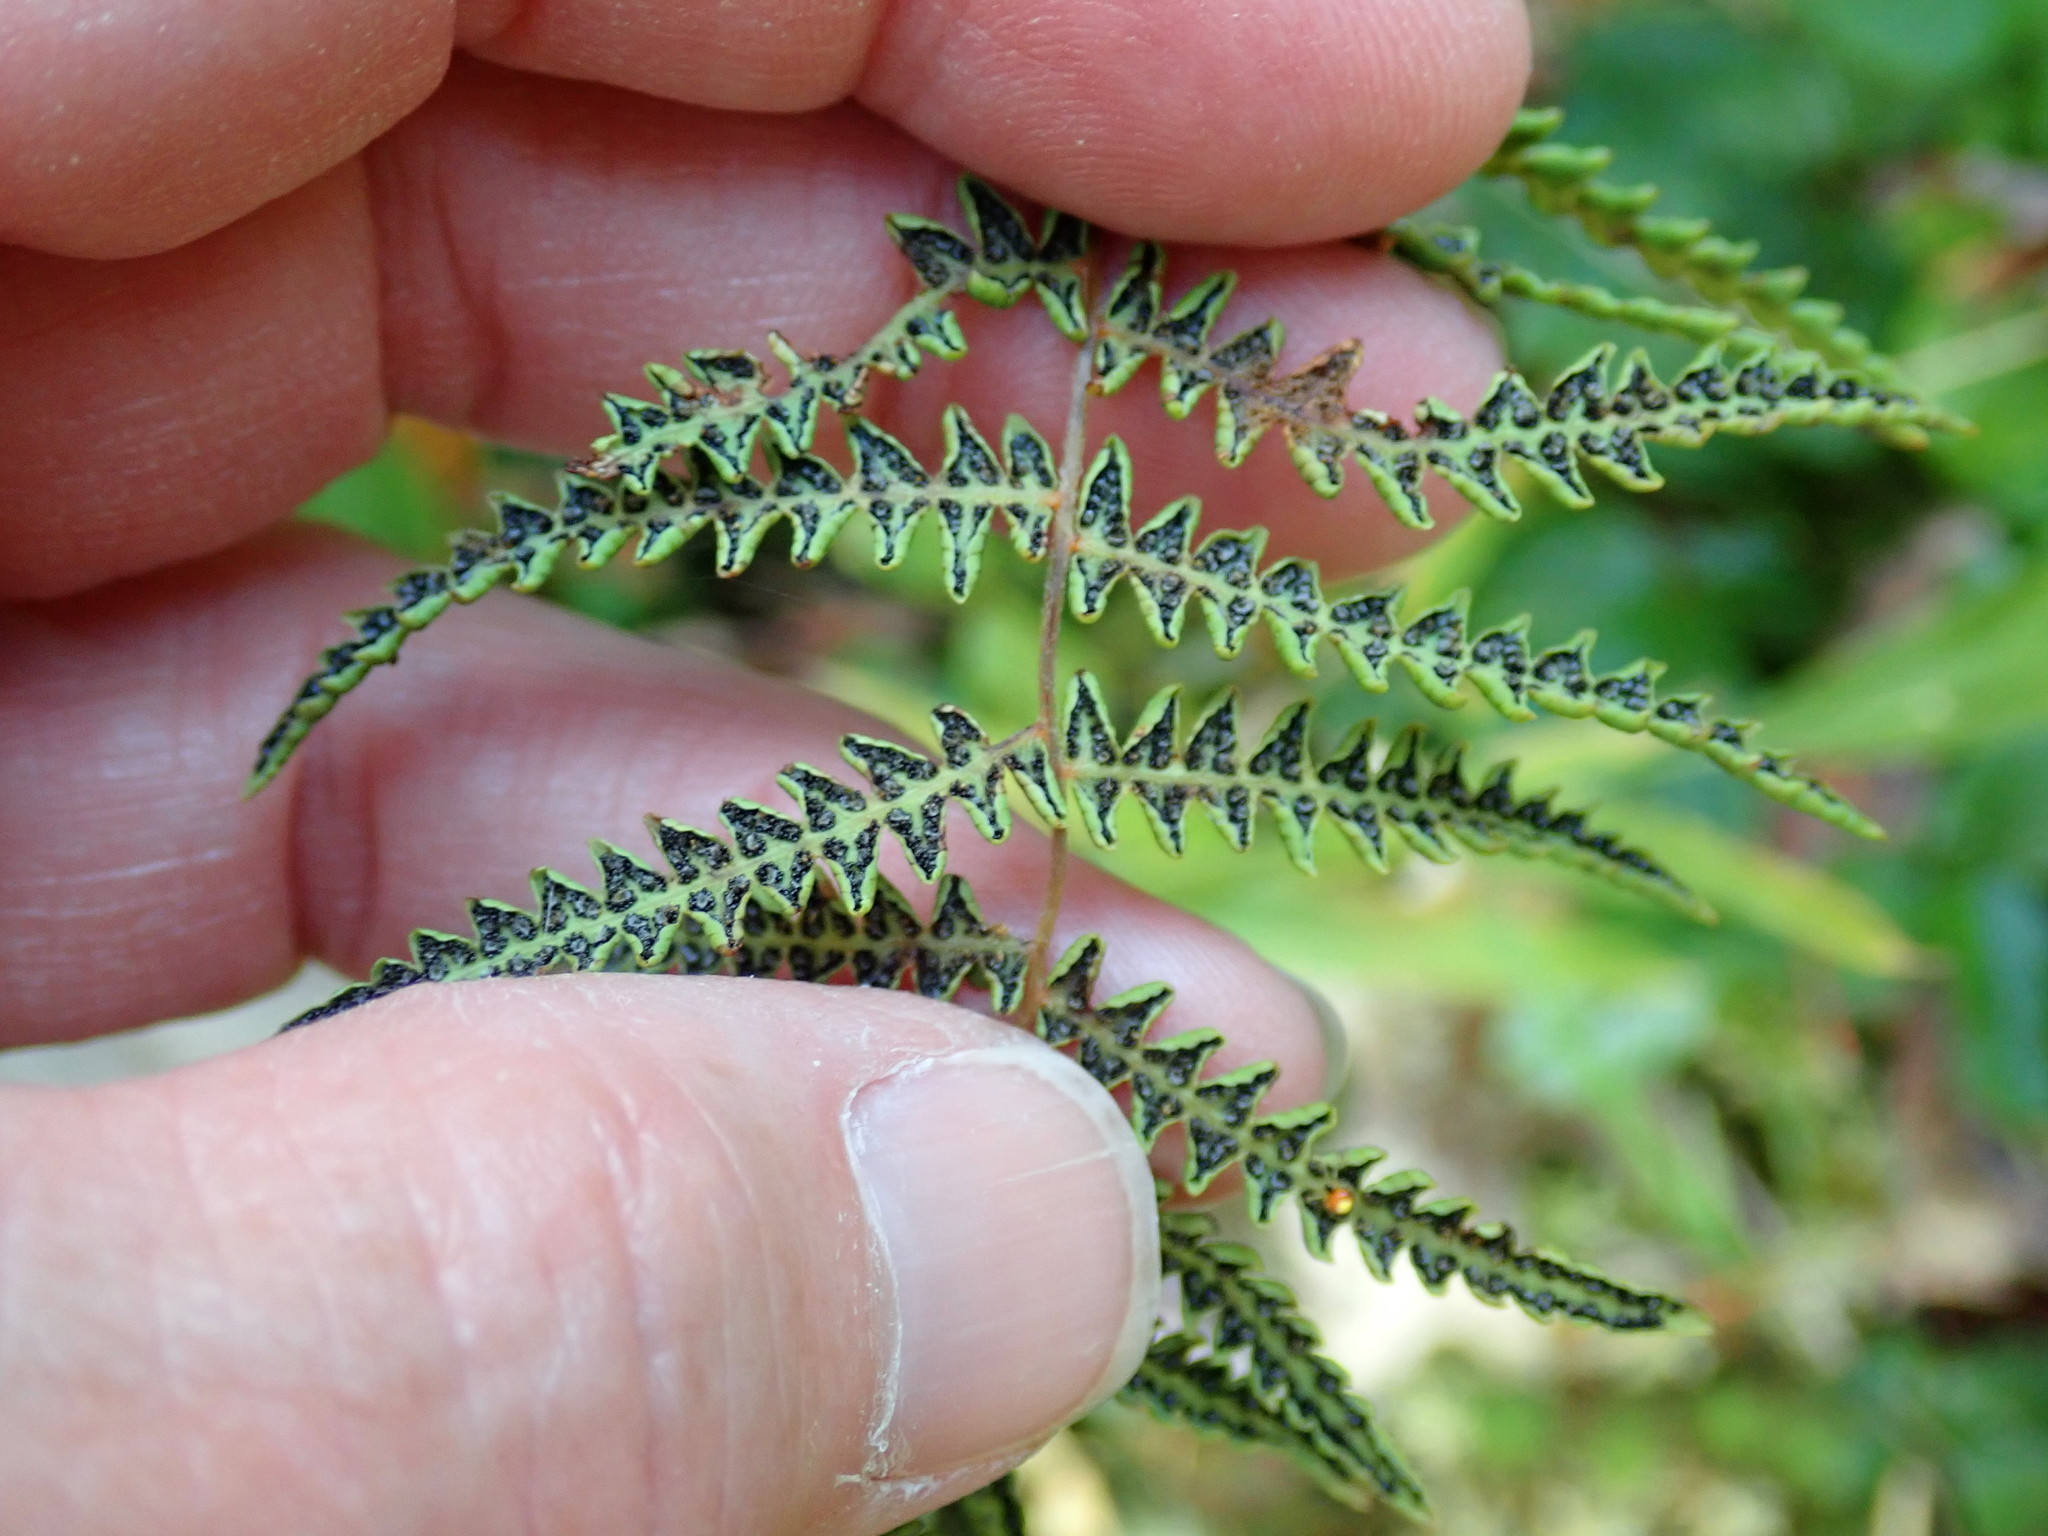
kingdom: Plantae
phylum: Tracheophyta
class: Polypodiopsida
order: Polypodiales
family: Thelypteridaceae
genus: Thelypteris
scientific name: Thelypteris palustris
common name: Marsh fern
